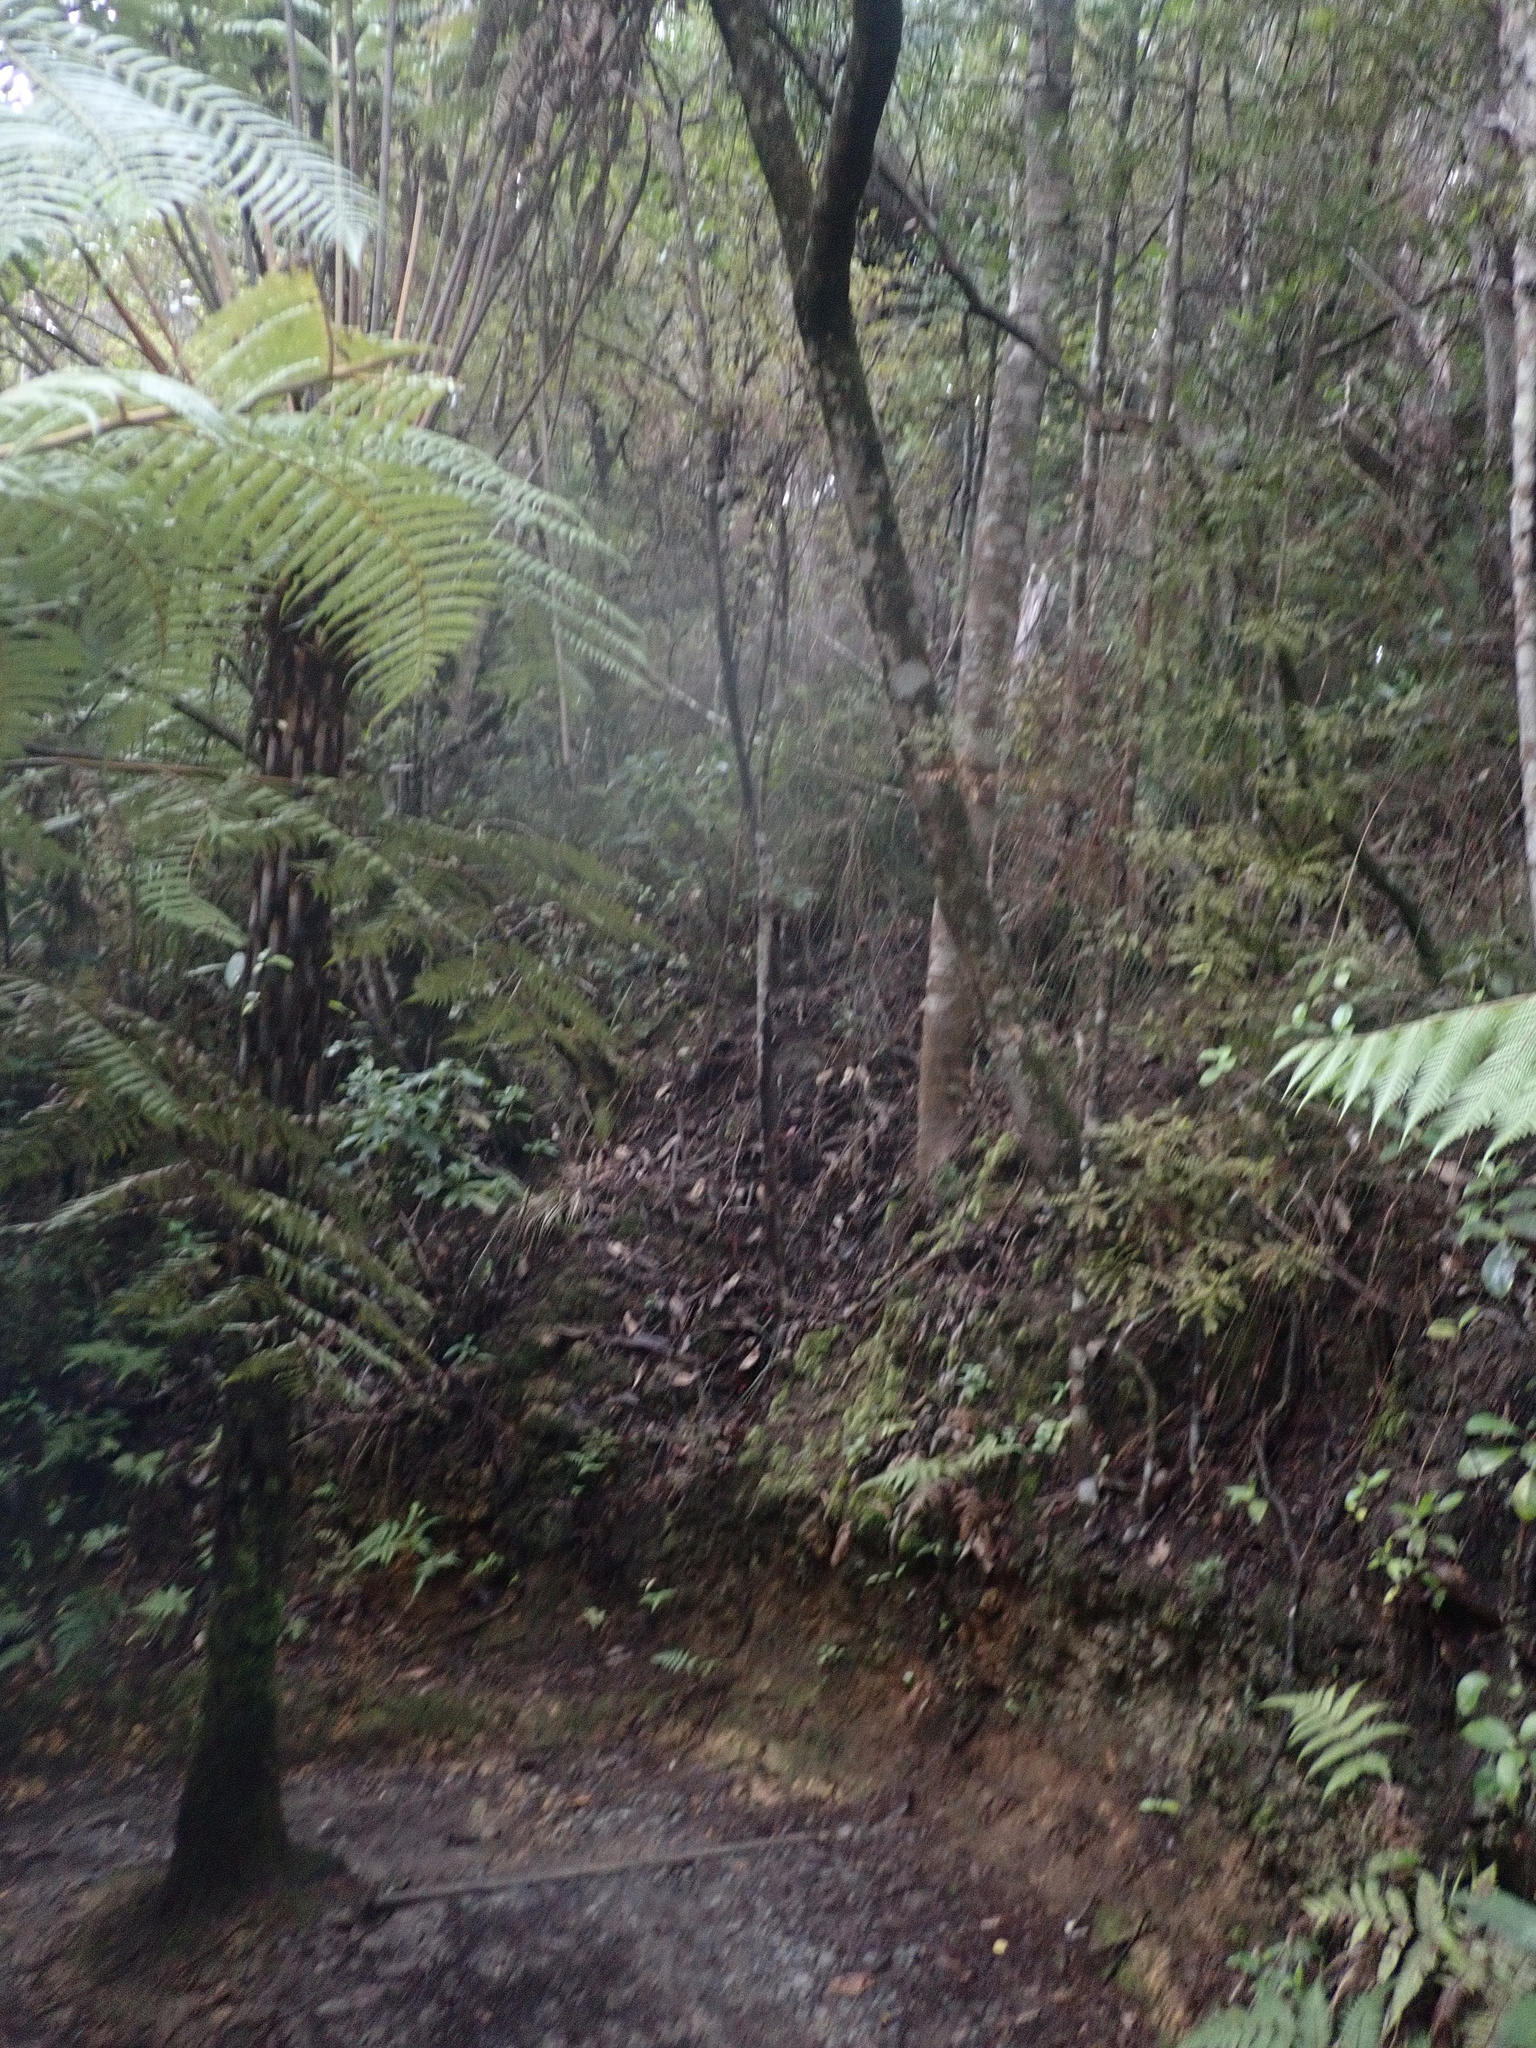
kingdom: Plantae
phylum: Tracheophyta
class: Pinopsida
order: Pinales
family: Araucariaceae
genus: Agathis
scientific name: Agathis australis
